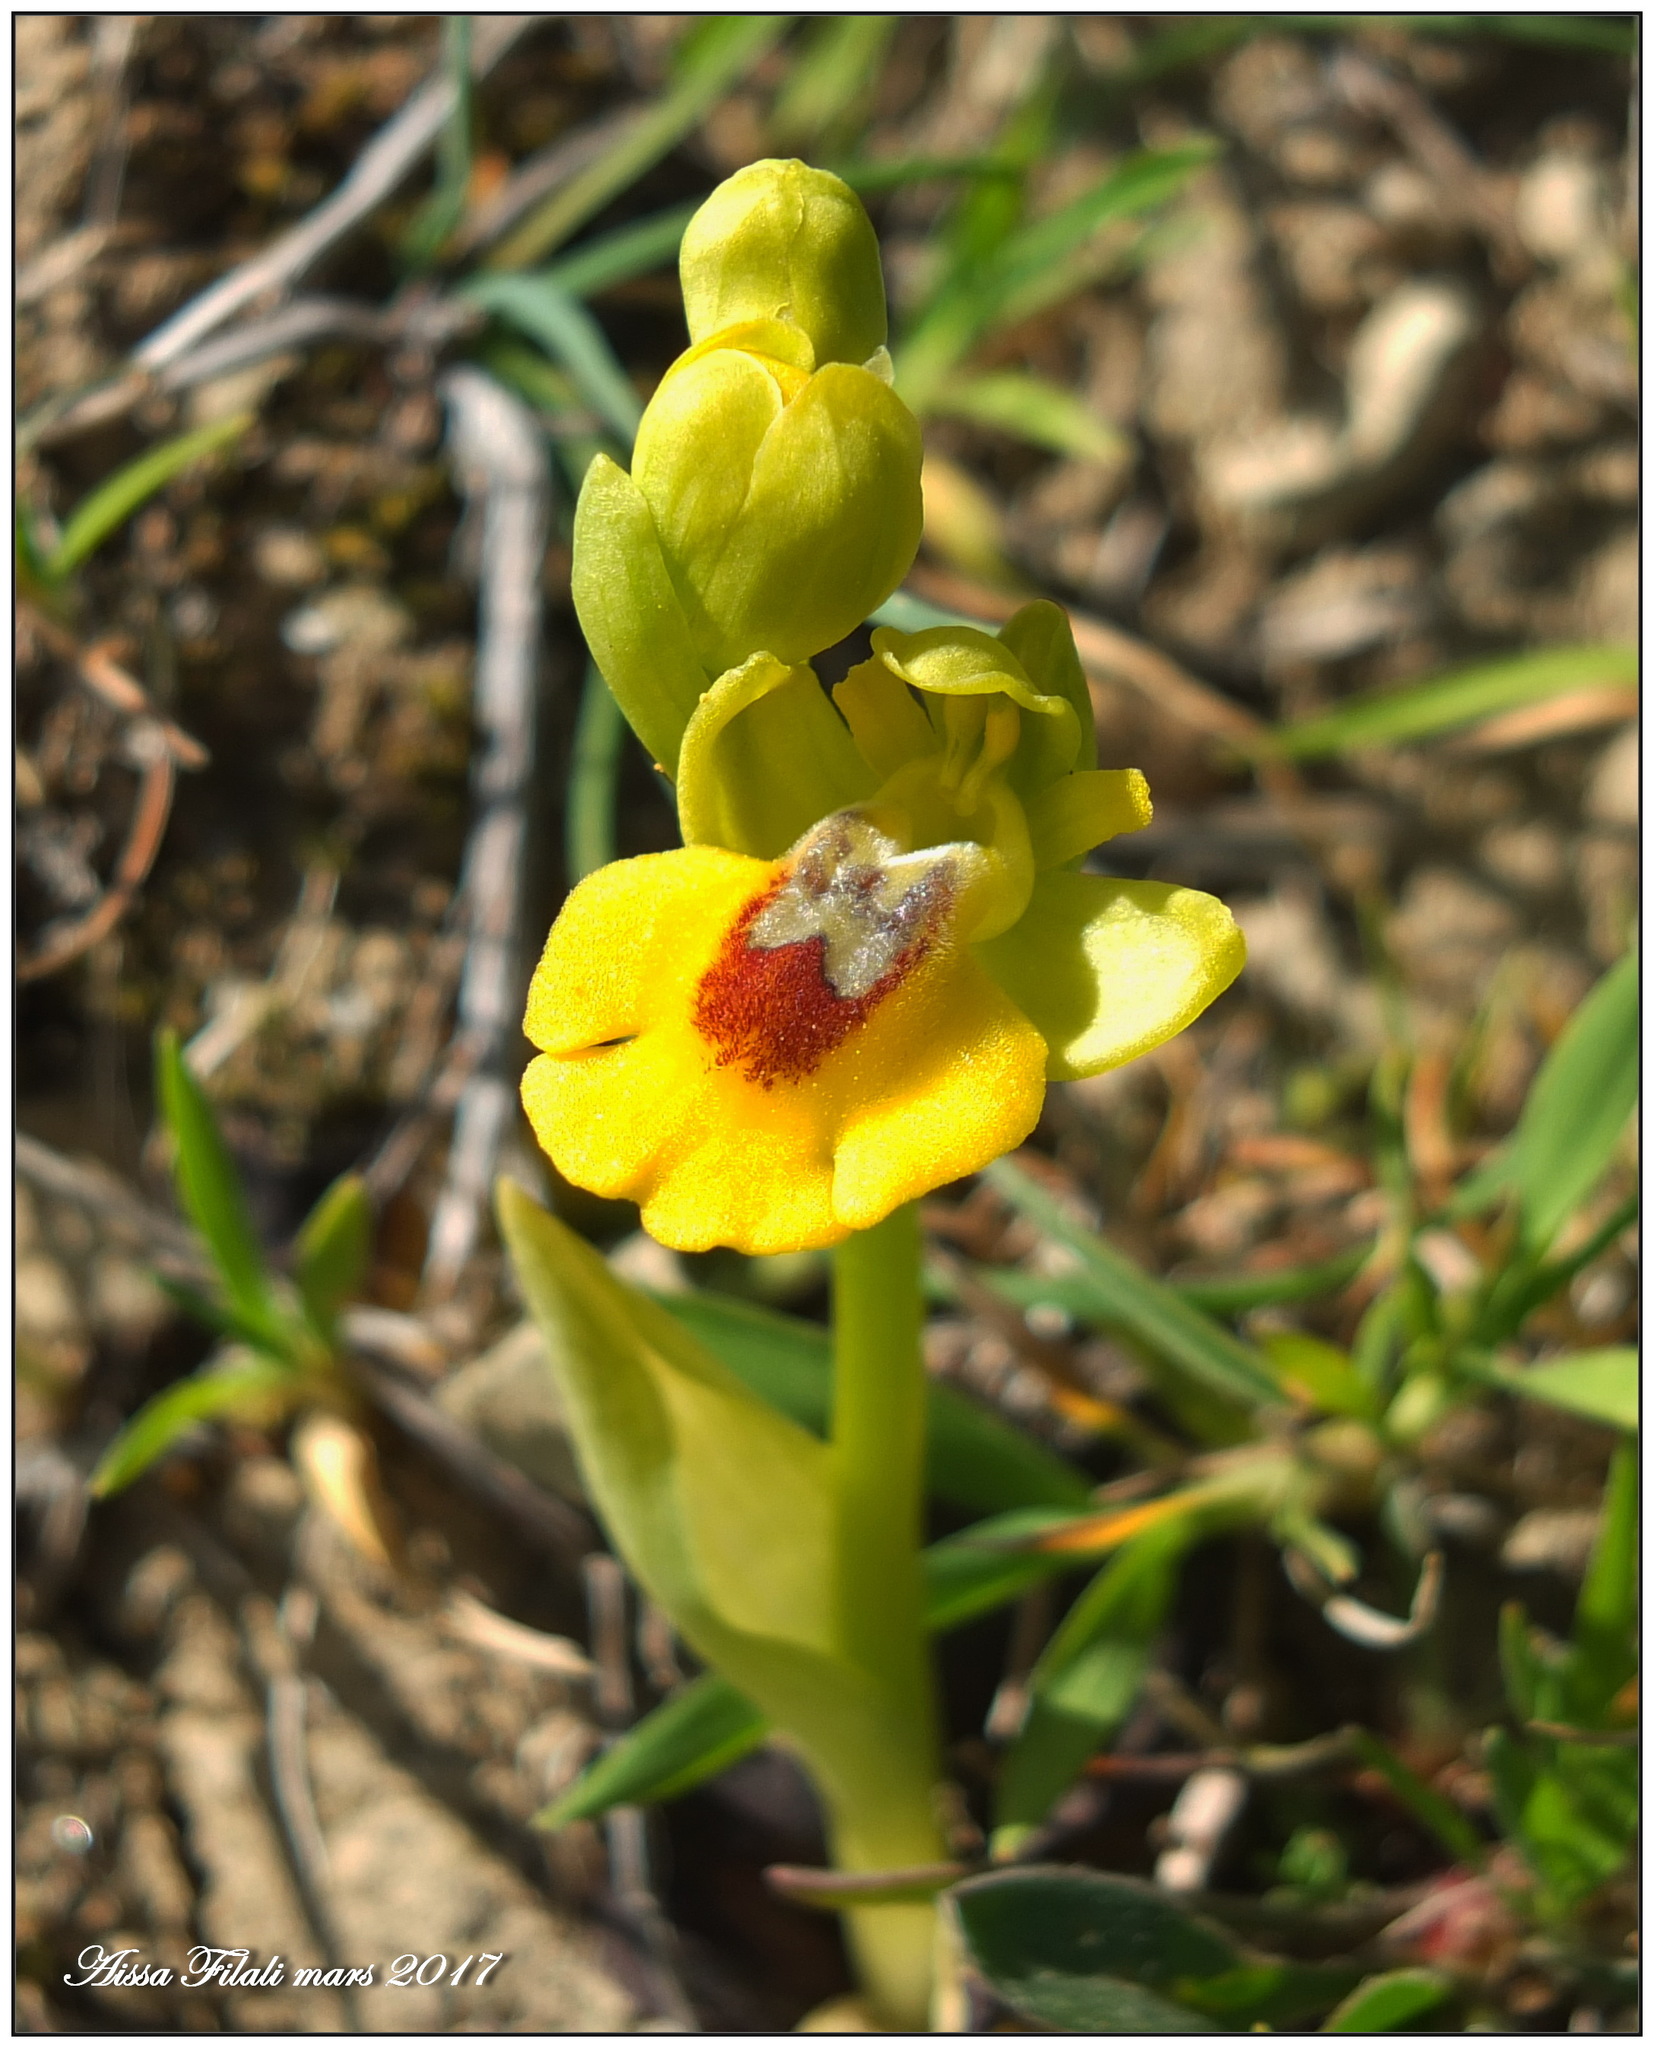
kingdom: Plantae
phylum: Tracheophyta
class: Liliopsida
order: Asparagales
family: Orchidaceae
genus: Ophrys
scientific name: Ophrys lutea
